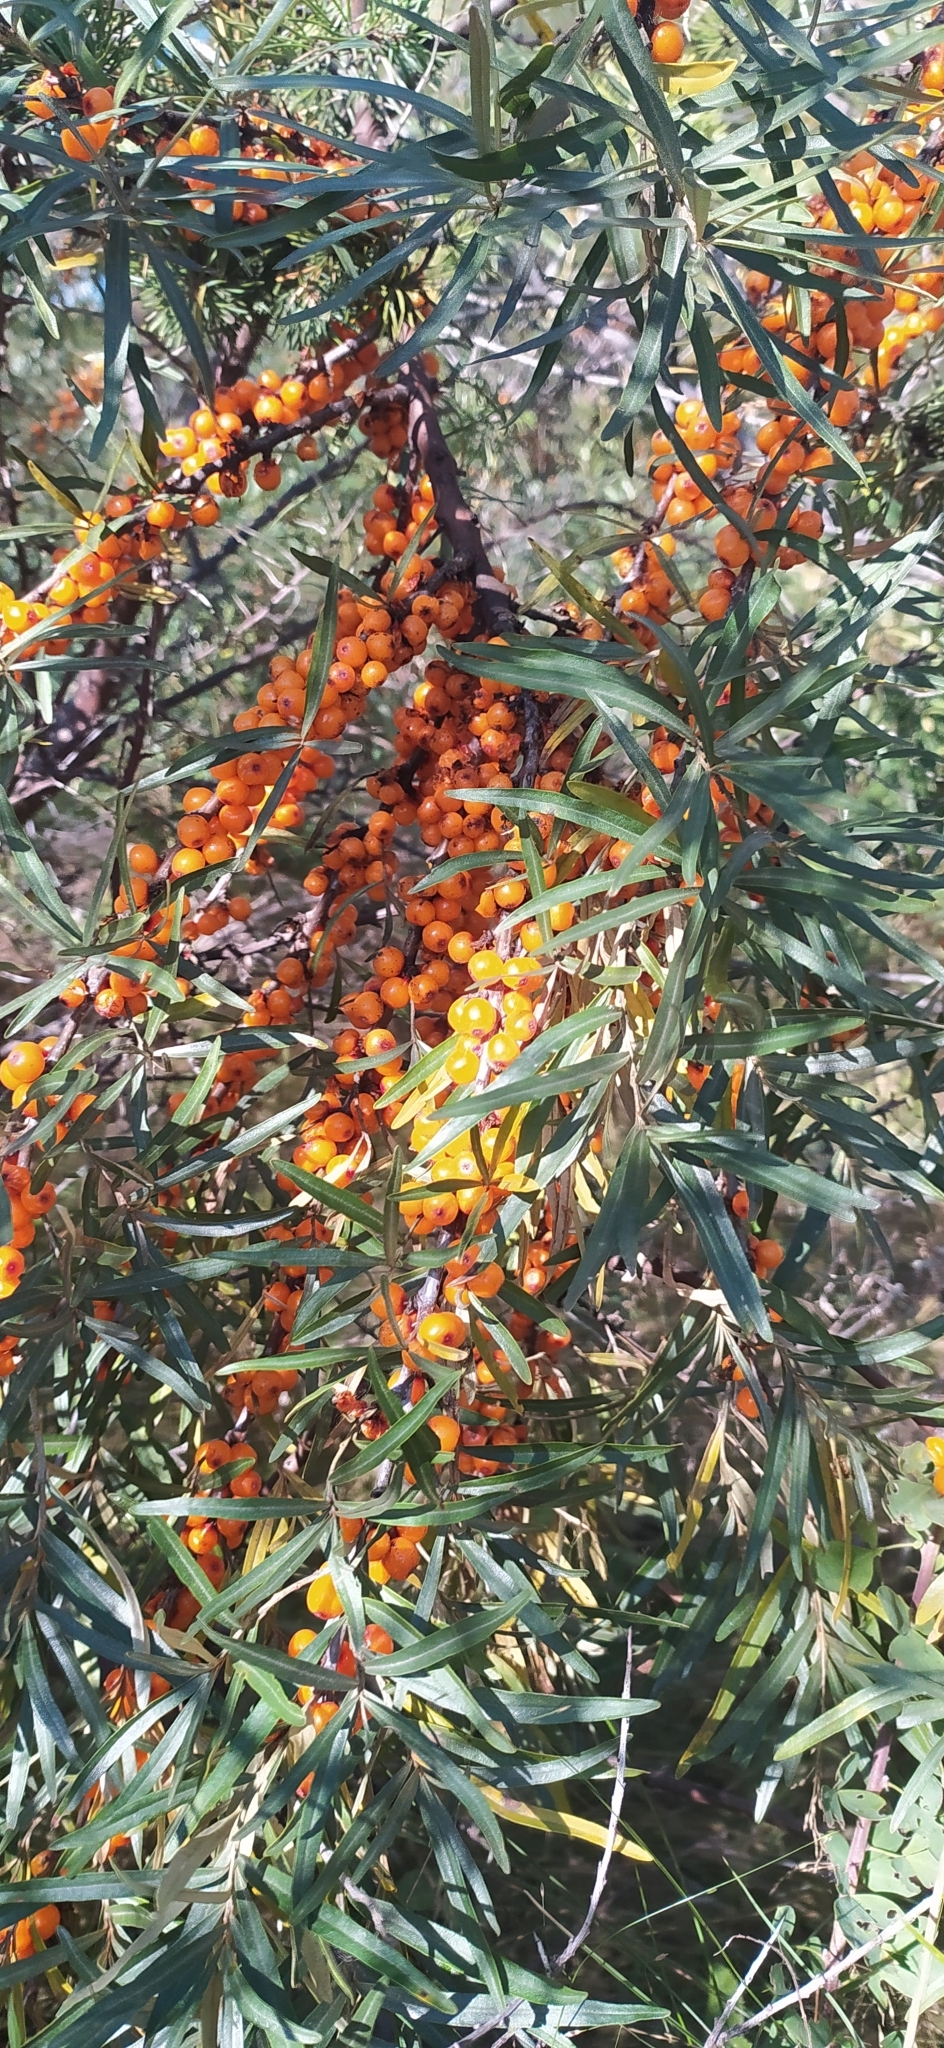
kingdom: Plantae
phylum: Tracheophyta
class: Magnoliopsida
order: Rosales
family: Elaeagnaceae
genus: Hippophae
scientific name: Hippophae rhamnoides
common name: Sea-buckthorn
